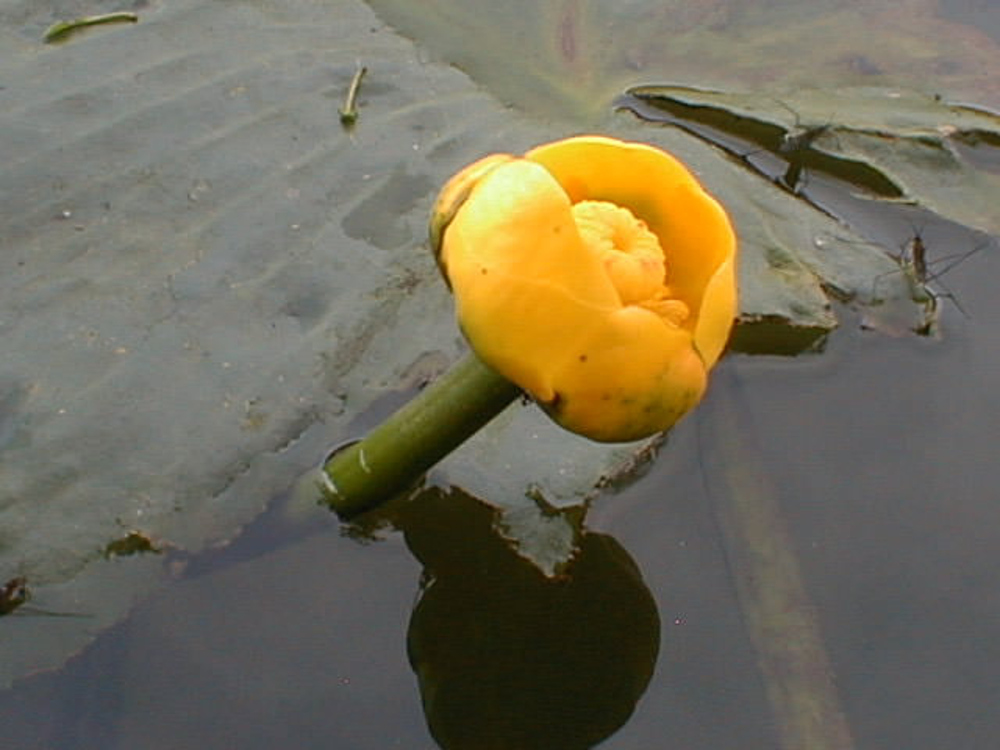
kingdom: Plantae
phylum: Tracheophyta
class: Magnoliopsida
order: Nymphaeales
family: Nymphaeaceae
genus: Nuphar
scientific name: Nuphar lutea
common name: Yellow water-lily
